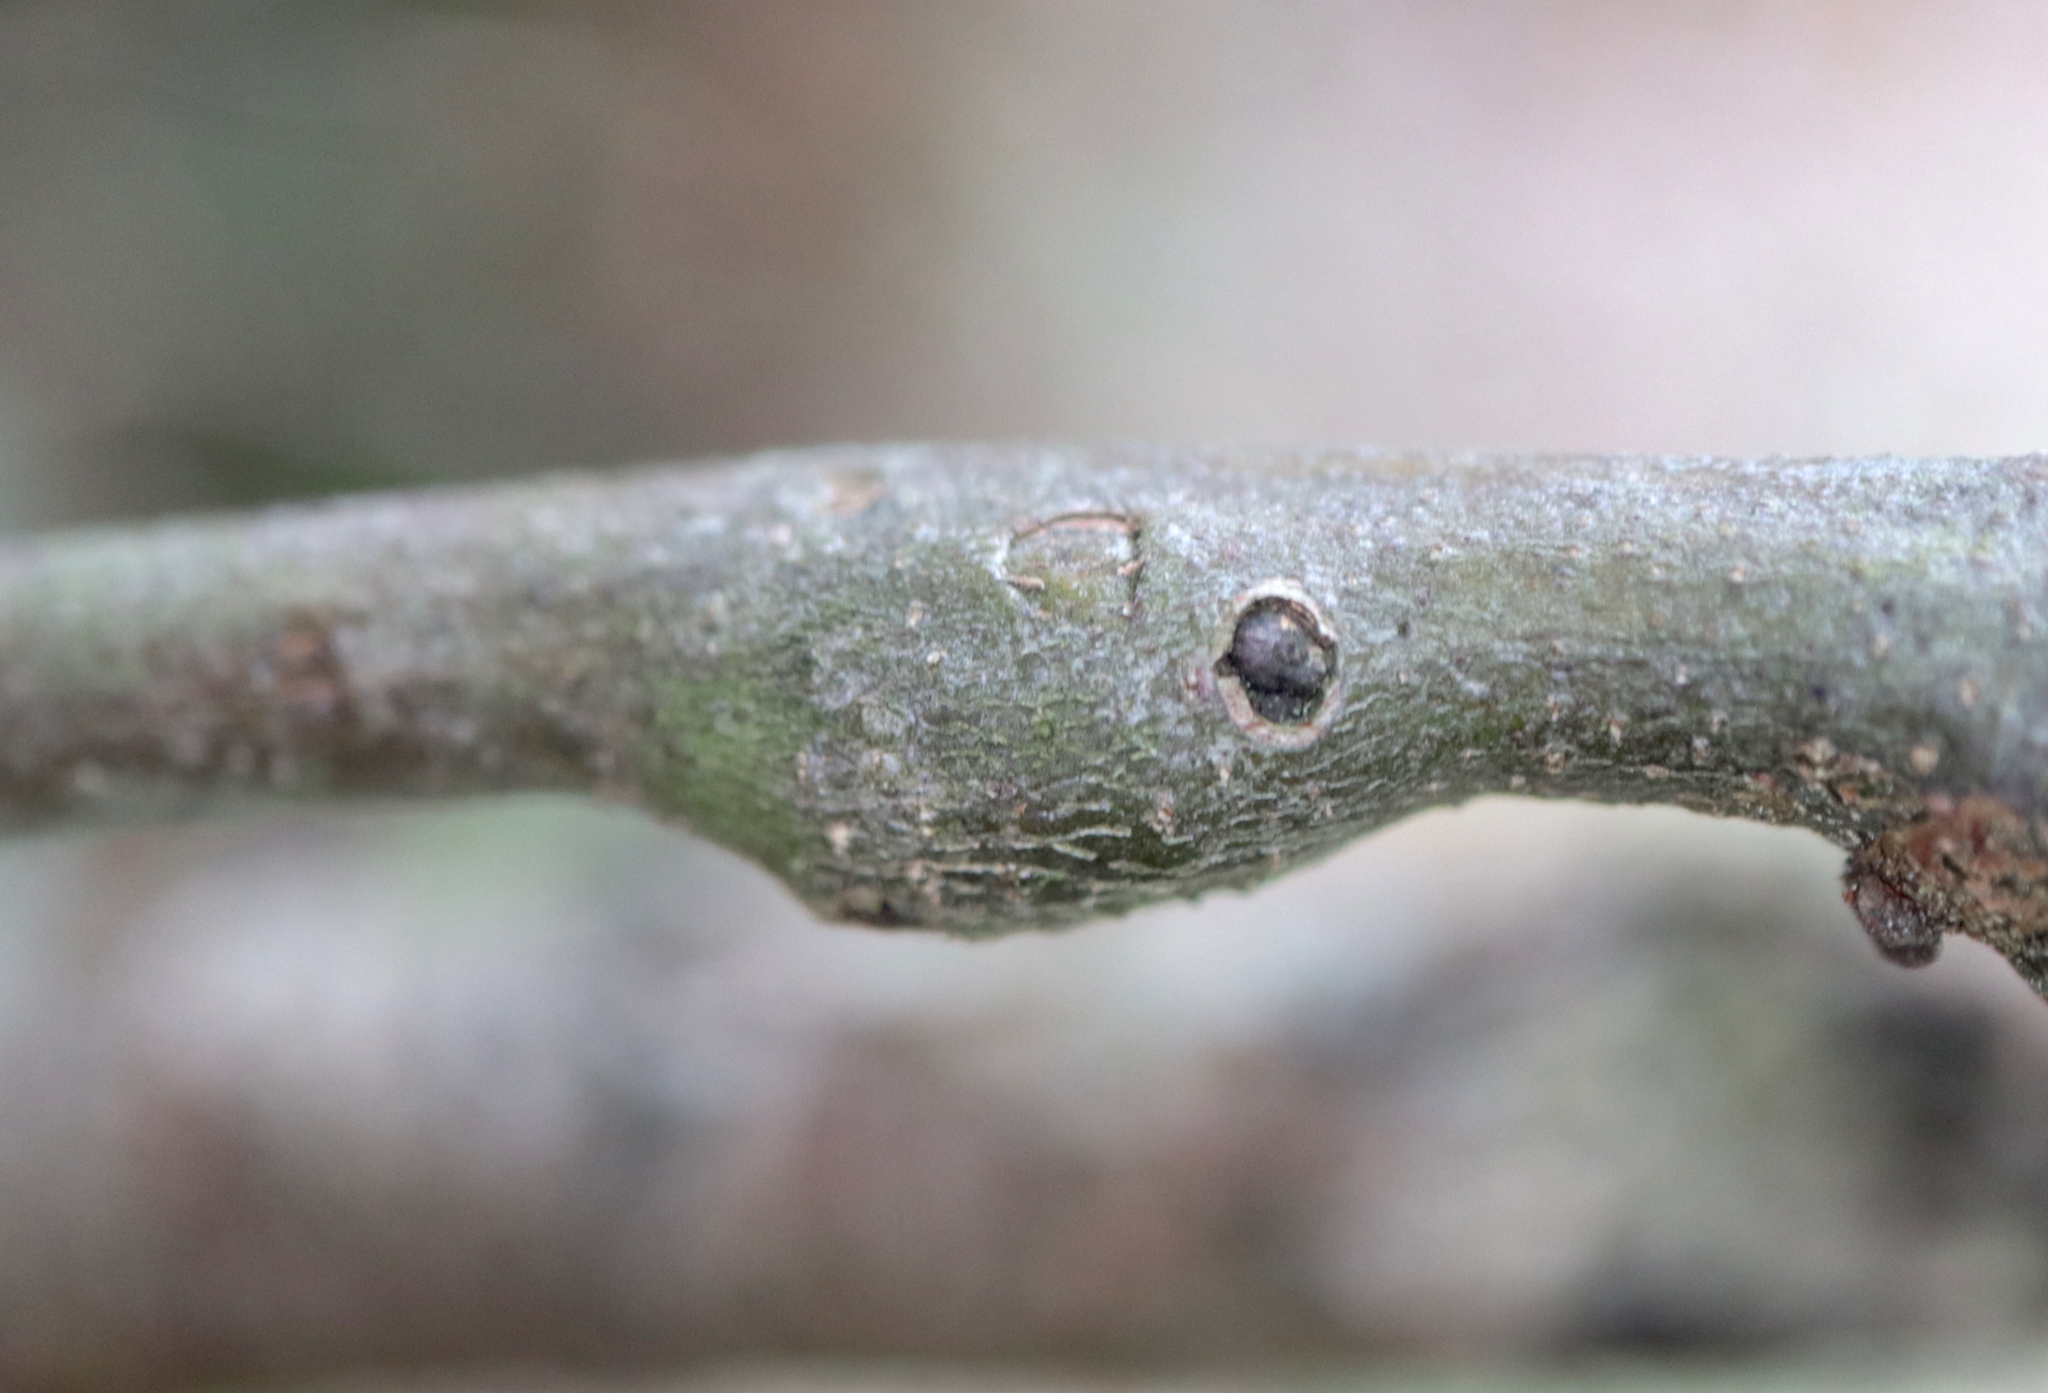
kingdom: Animalia
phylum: Arthropoda
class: Insecta
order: Hymenoptera
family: Cynipidae
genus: Zapatella
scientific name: Zapatella quercusmedullae
